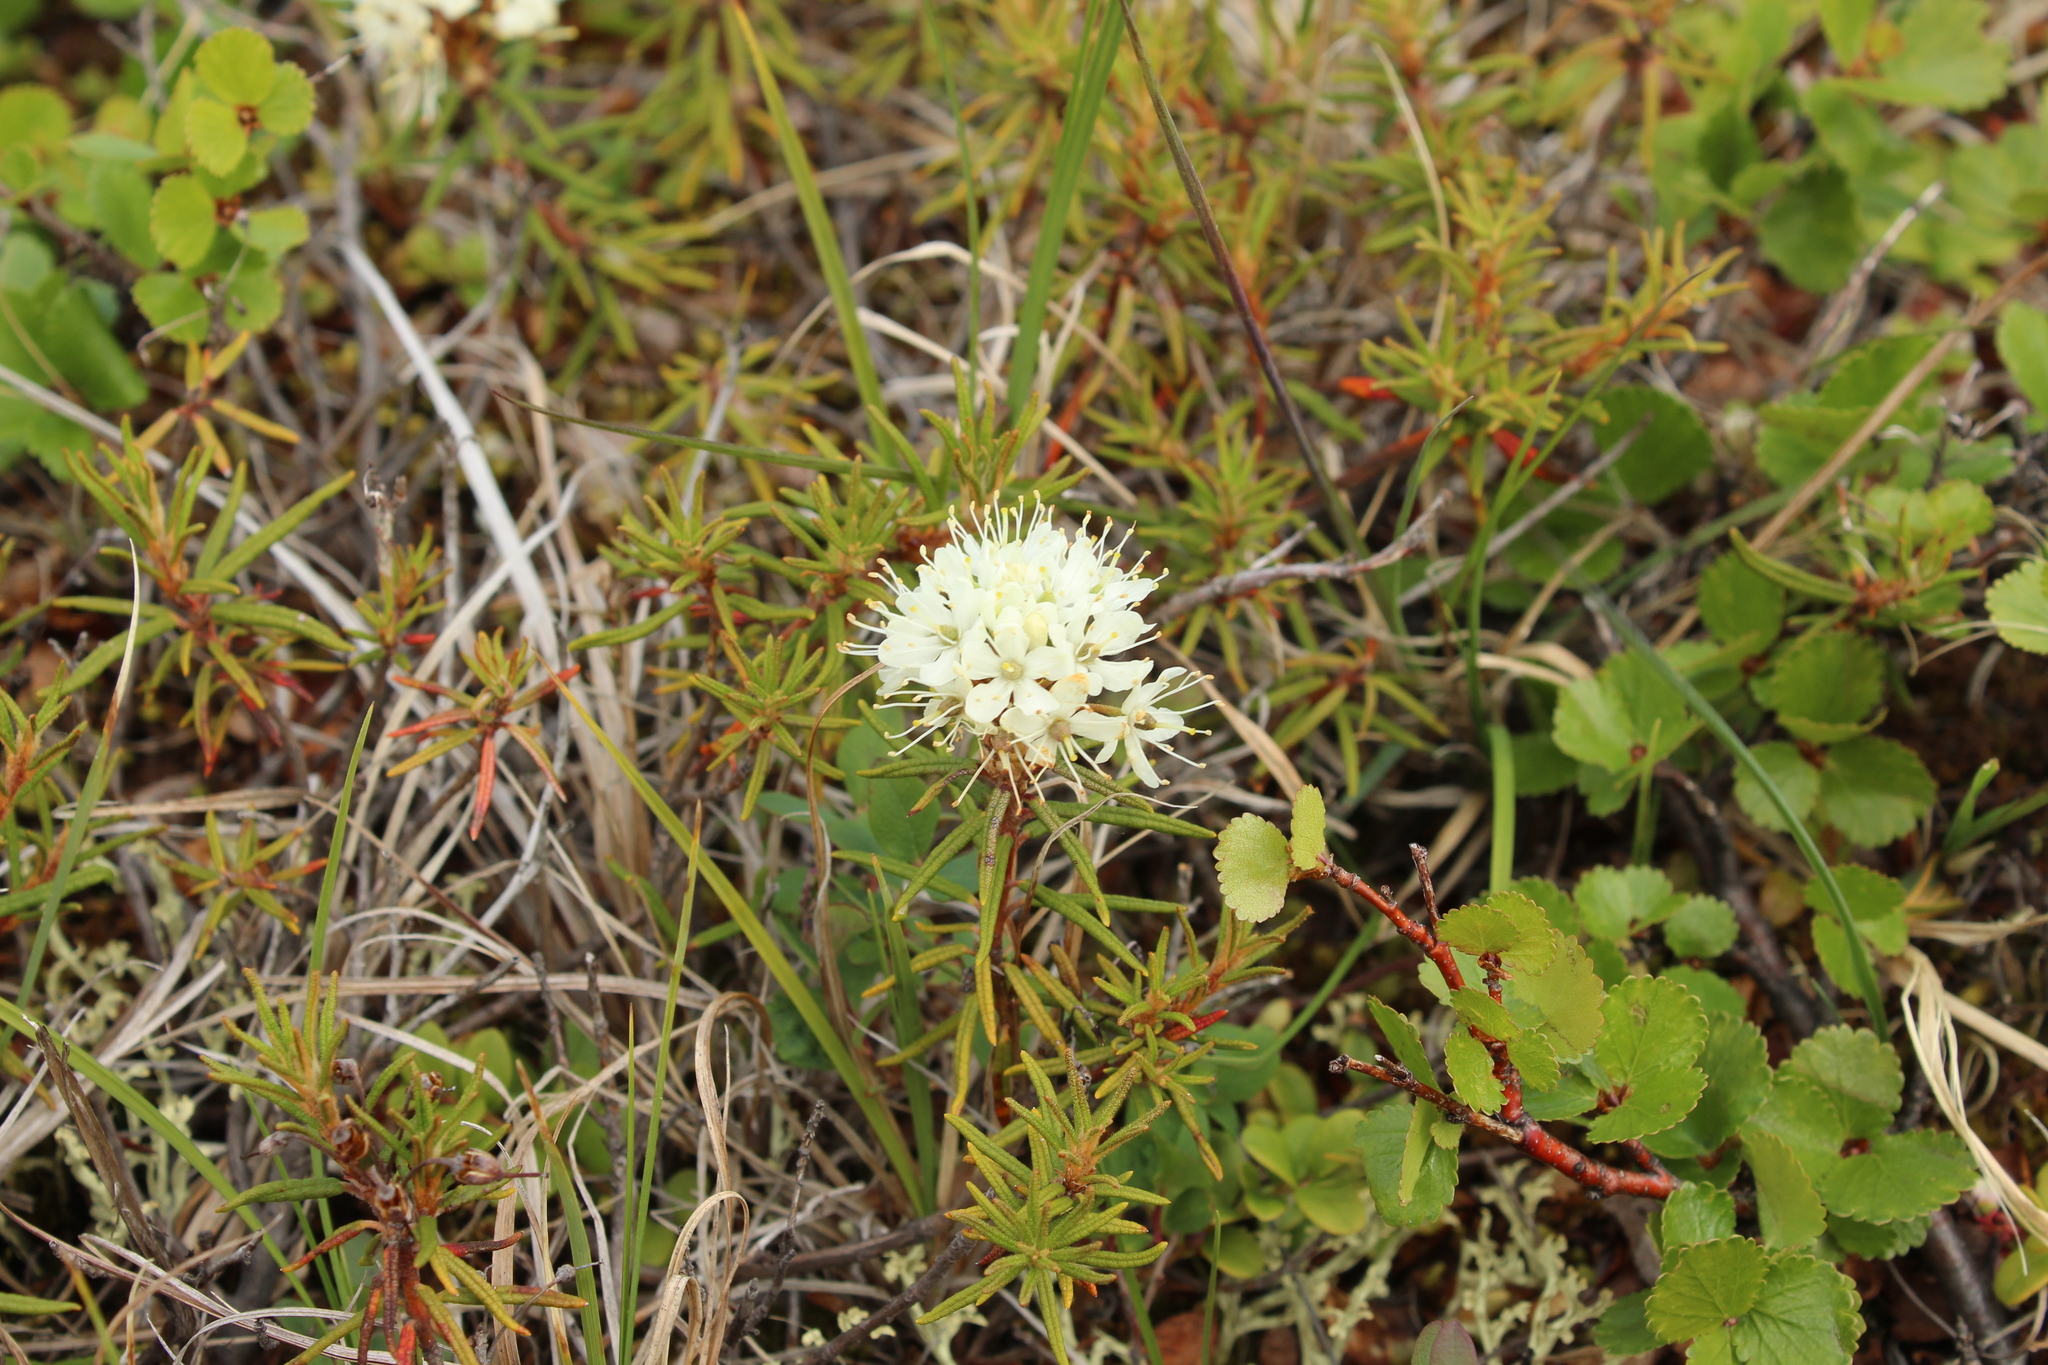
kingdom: Plantae
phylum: Tracheophyta
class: Magnoliopsida
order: Ericales
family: Ericaceae
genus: Rhododendron
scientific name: Rhododendron tomentosum
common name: Marsh labrador tea
